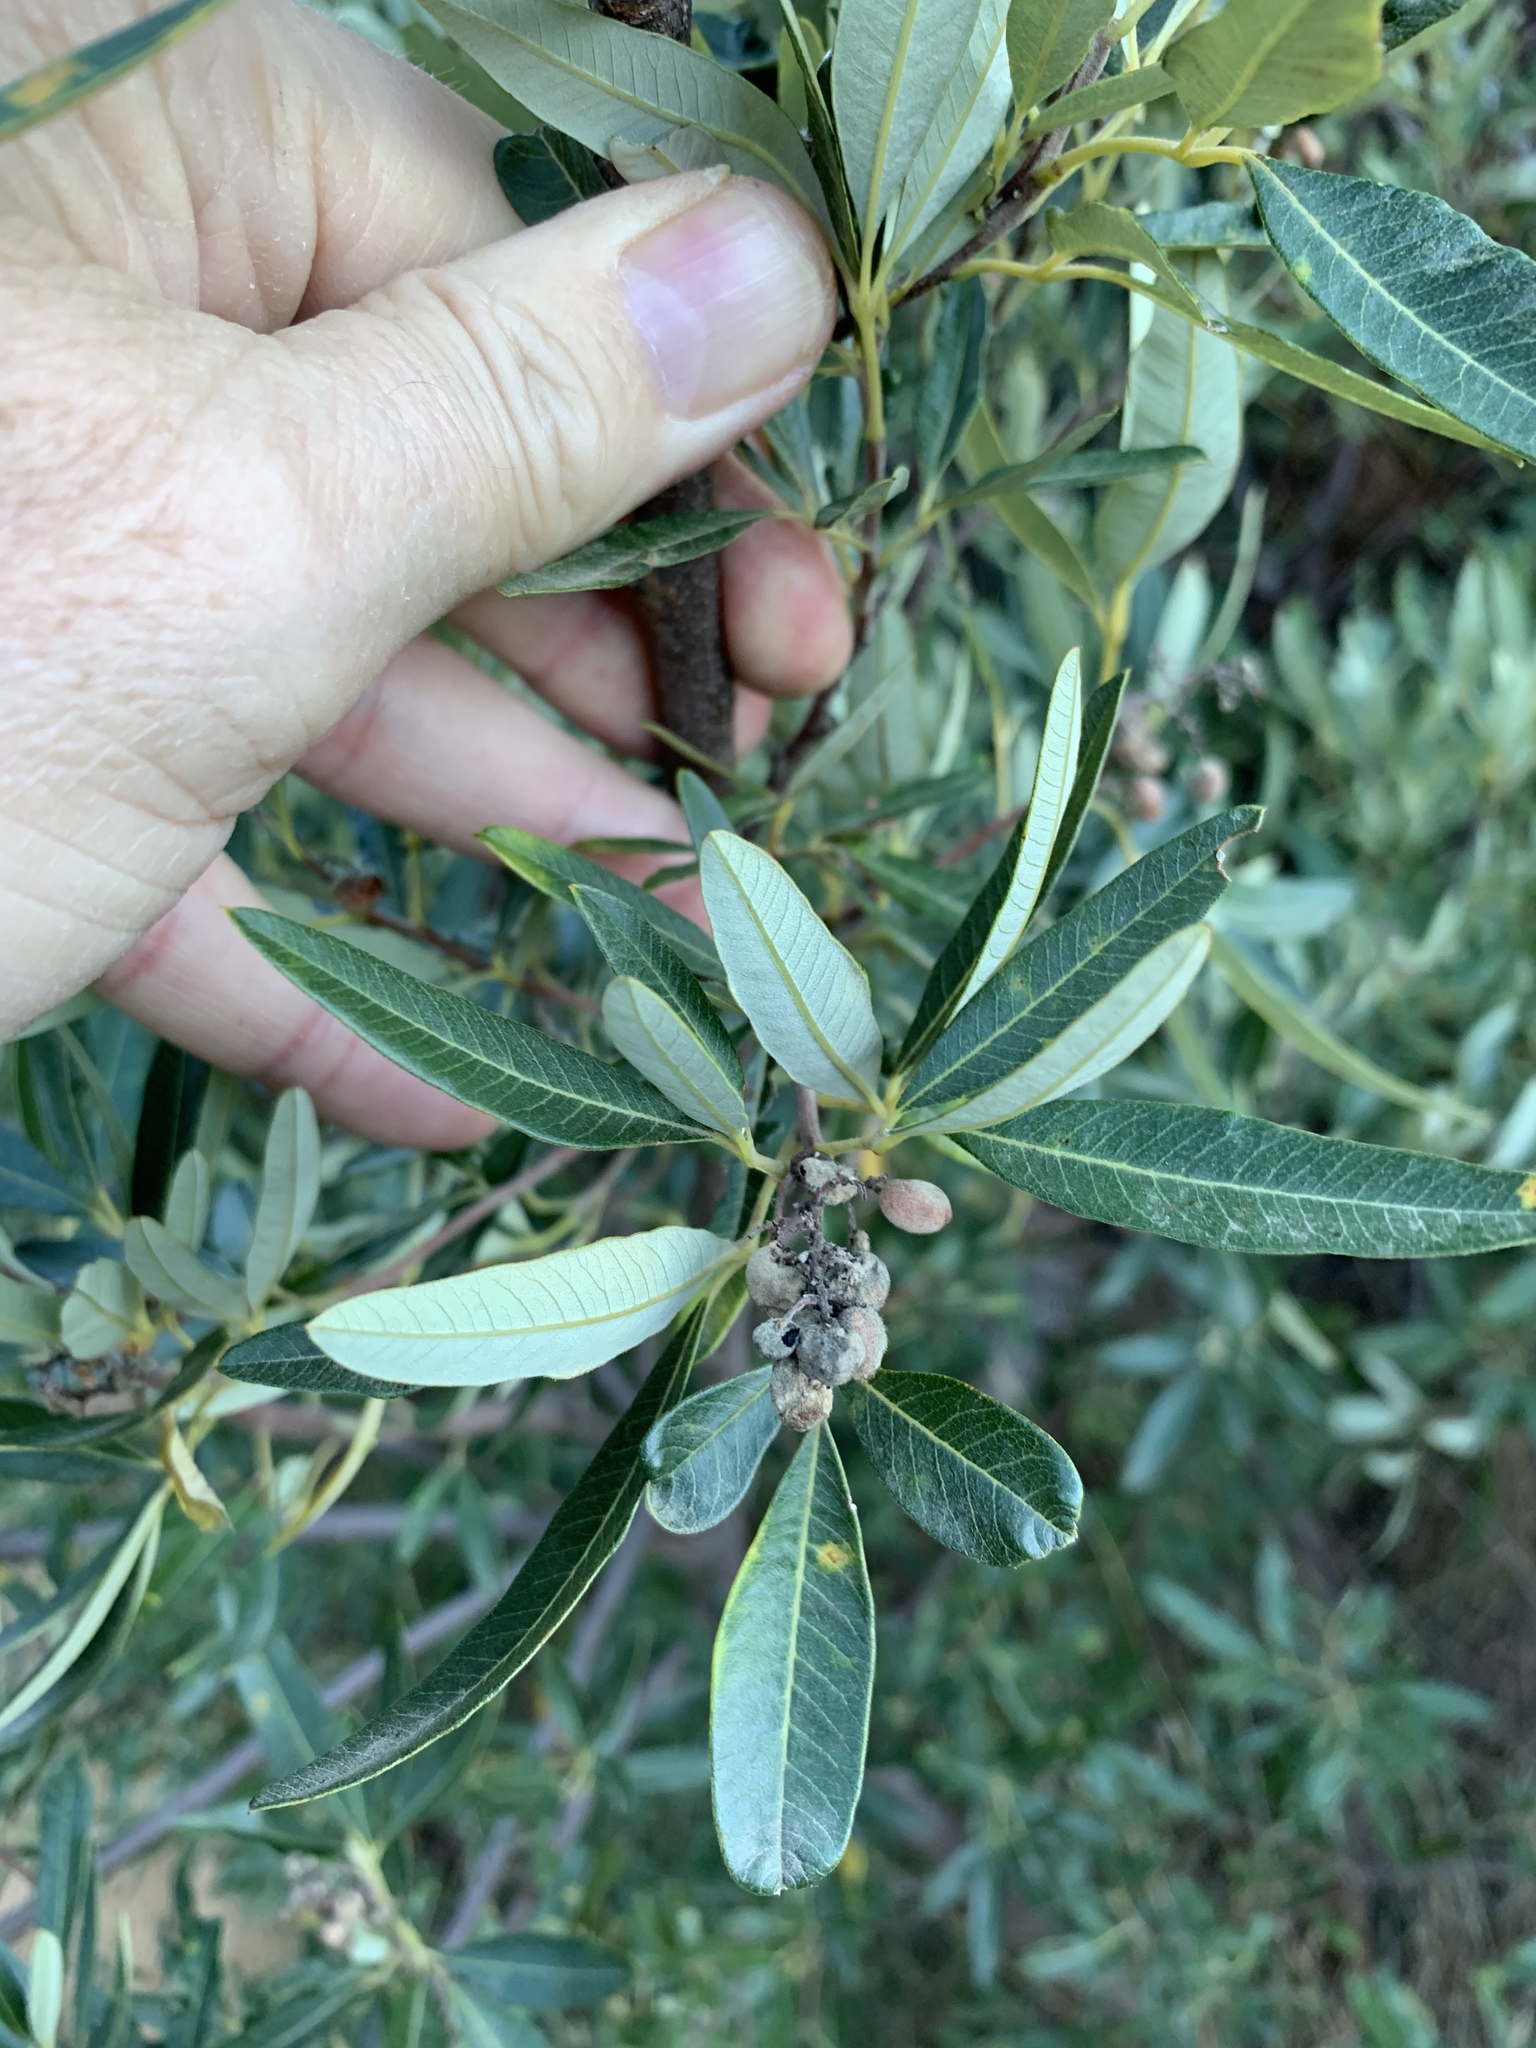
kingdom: Plantae
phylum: Tracheophyta
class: Magnoliopsida
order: Sapindales
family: Anacardiaceae
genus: Searsia
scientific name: Searsia angustifolia
